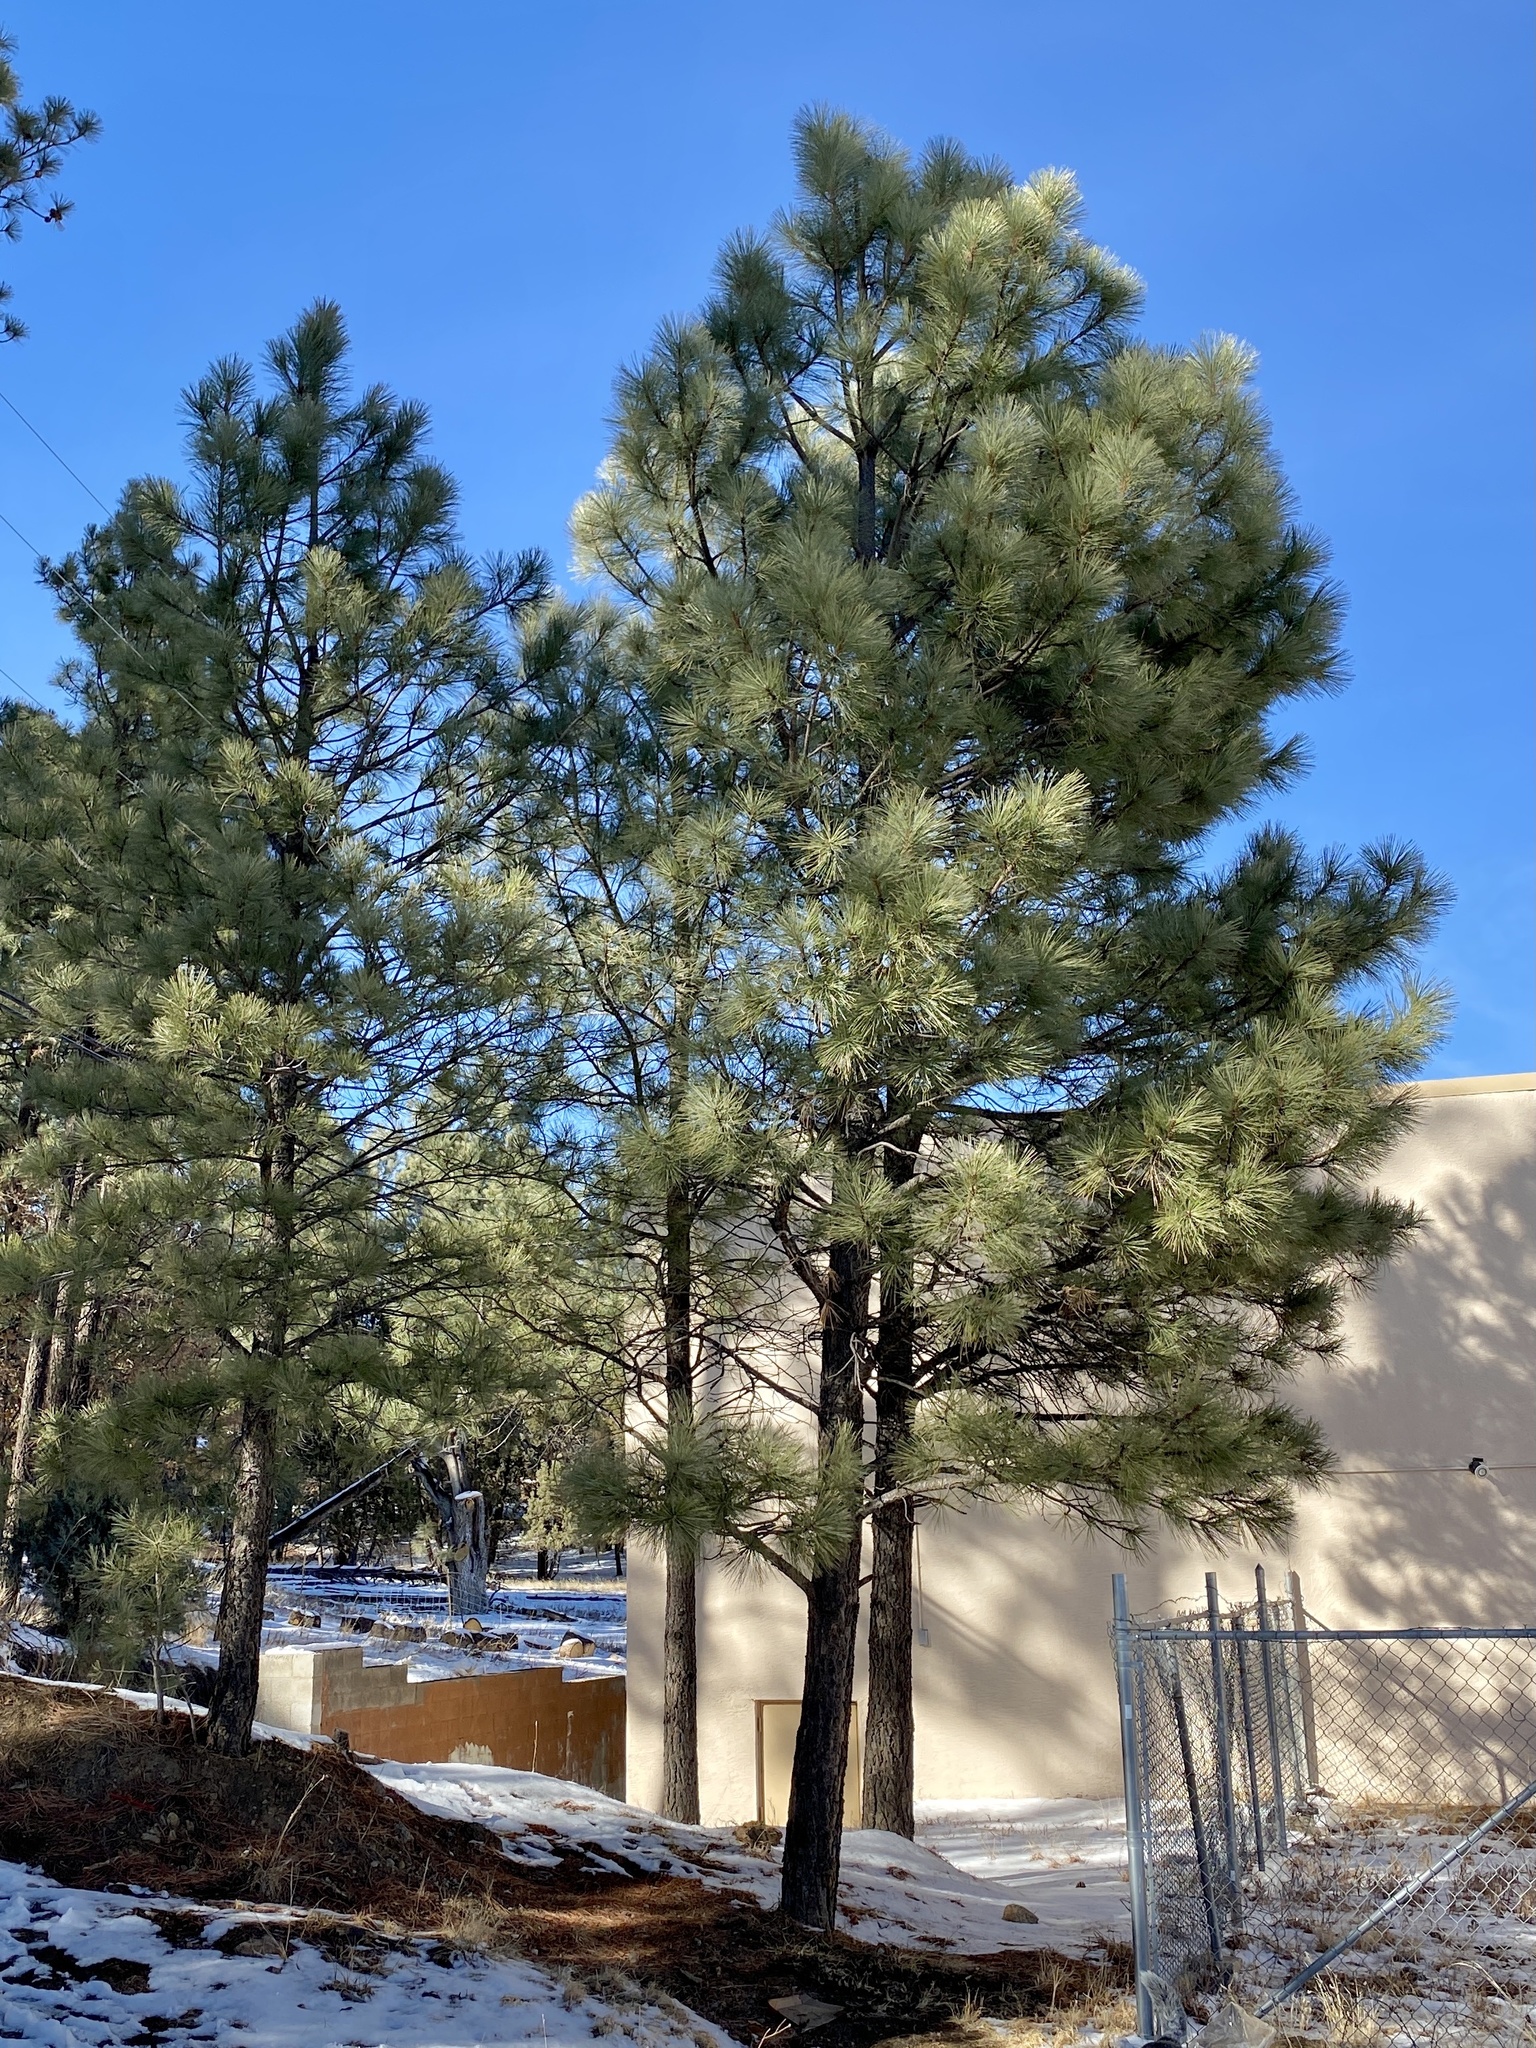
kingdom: Plantae
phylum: Tracheophyta
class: Pinopsida
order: Pinales
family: Pinaceae
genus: Pinus
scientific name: Pinus ponderosa
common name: Western yellow-pine
